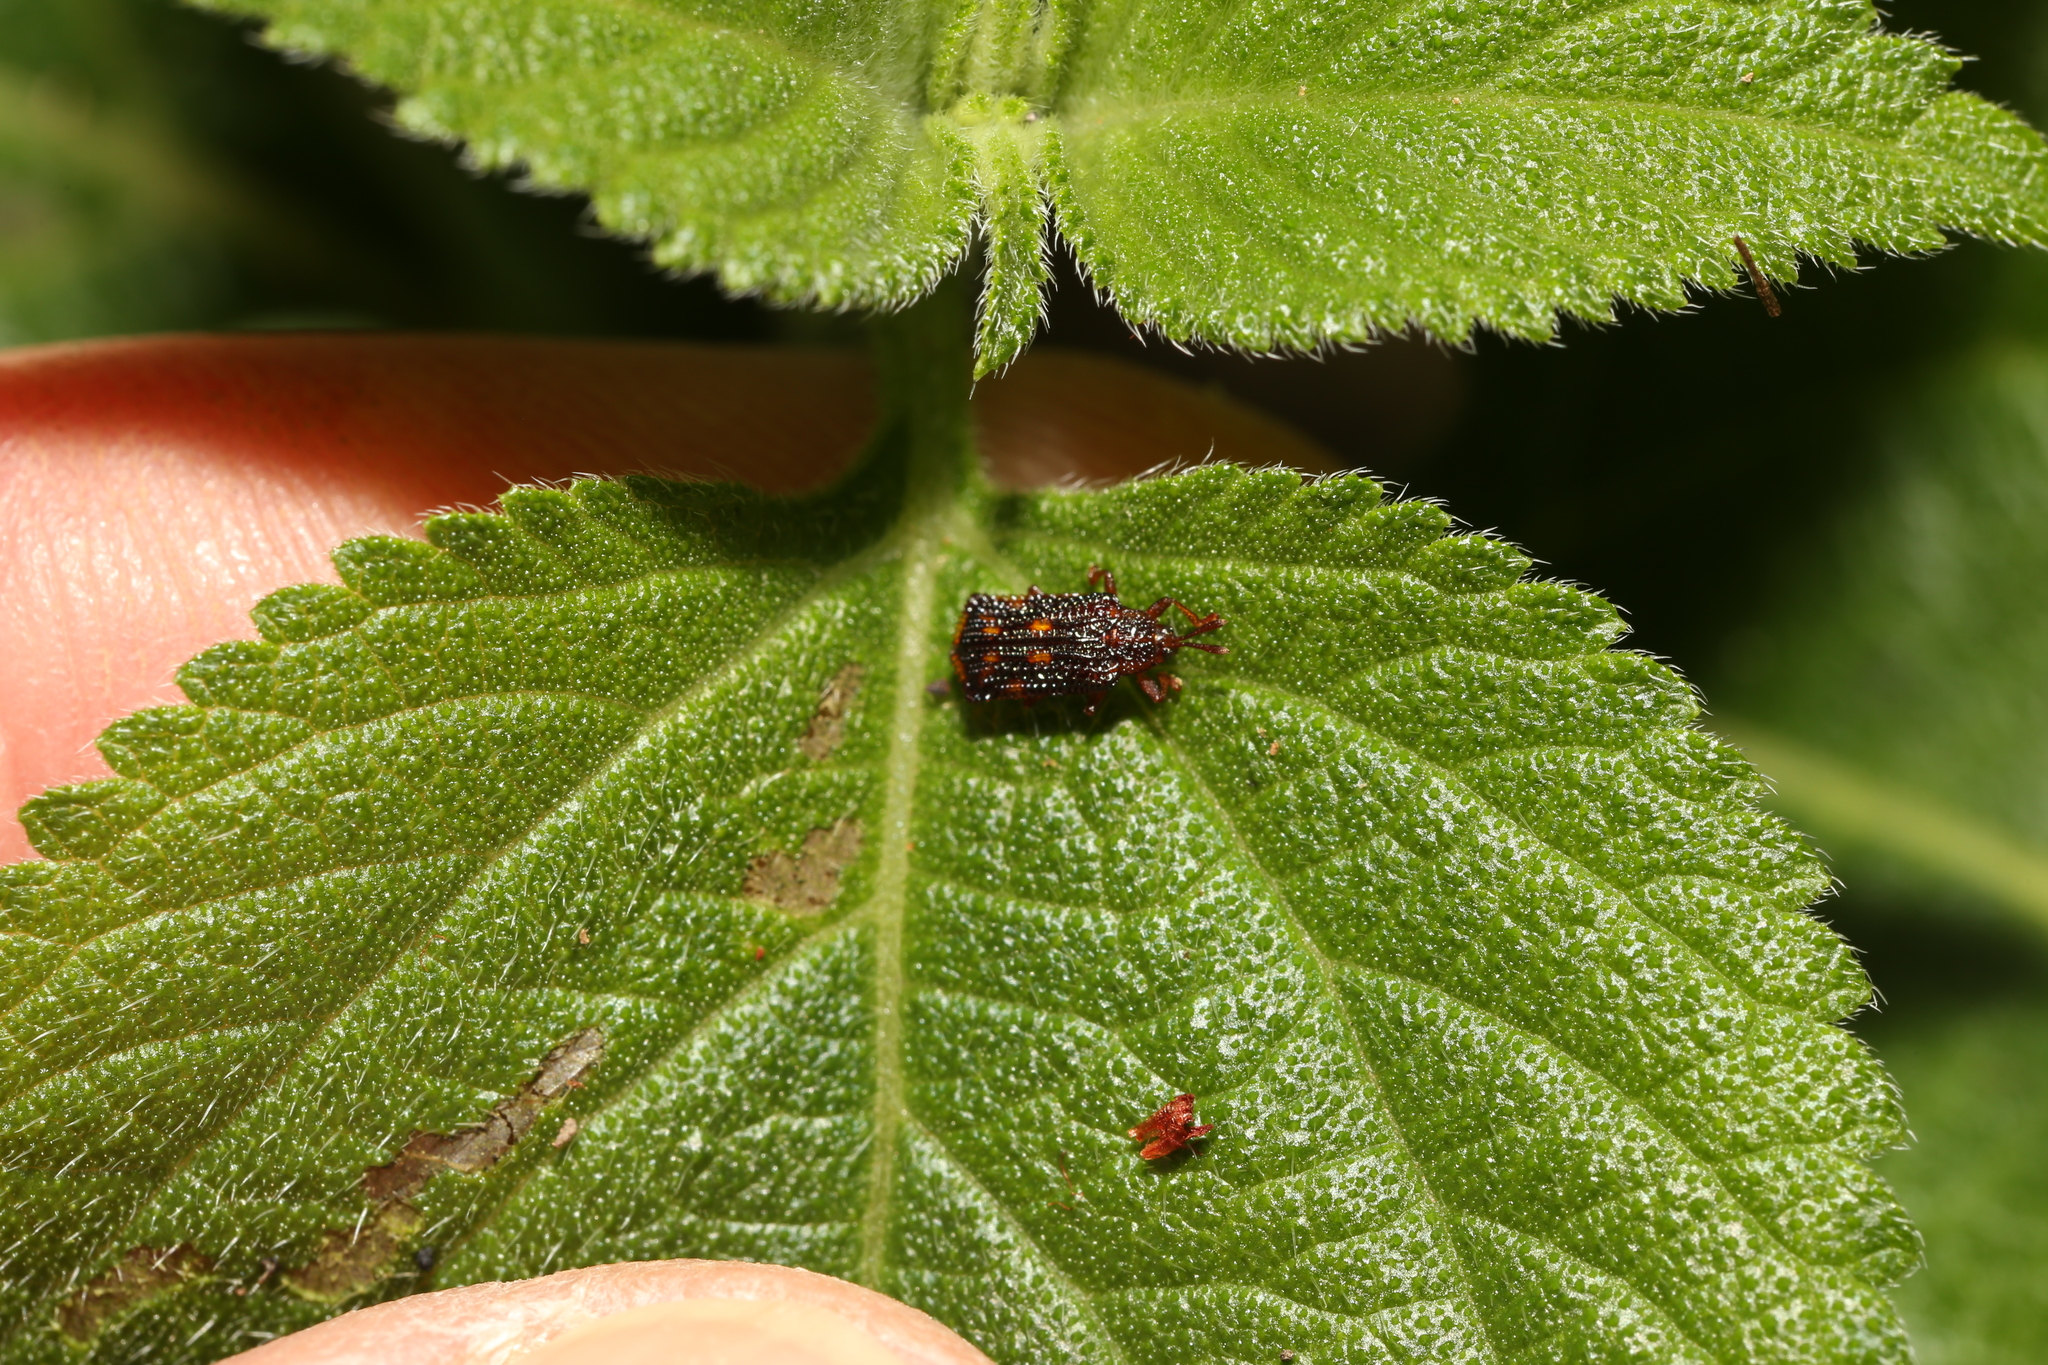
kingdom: Animalia
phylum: Arthropoda
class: Insecta
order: Coleoptera
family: Chrysomelidae
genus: Uroplata
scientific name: Uroplata girardi
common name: Lantana leafminer
